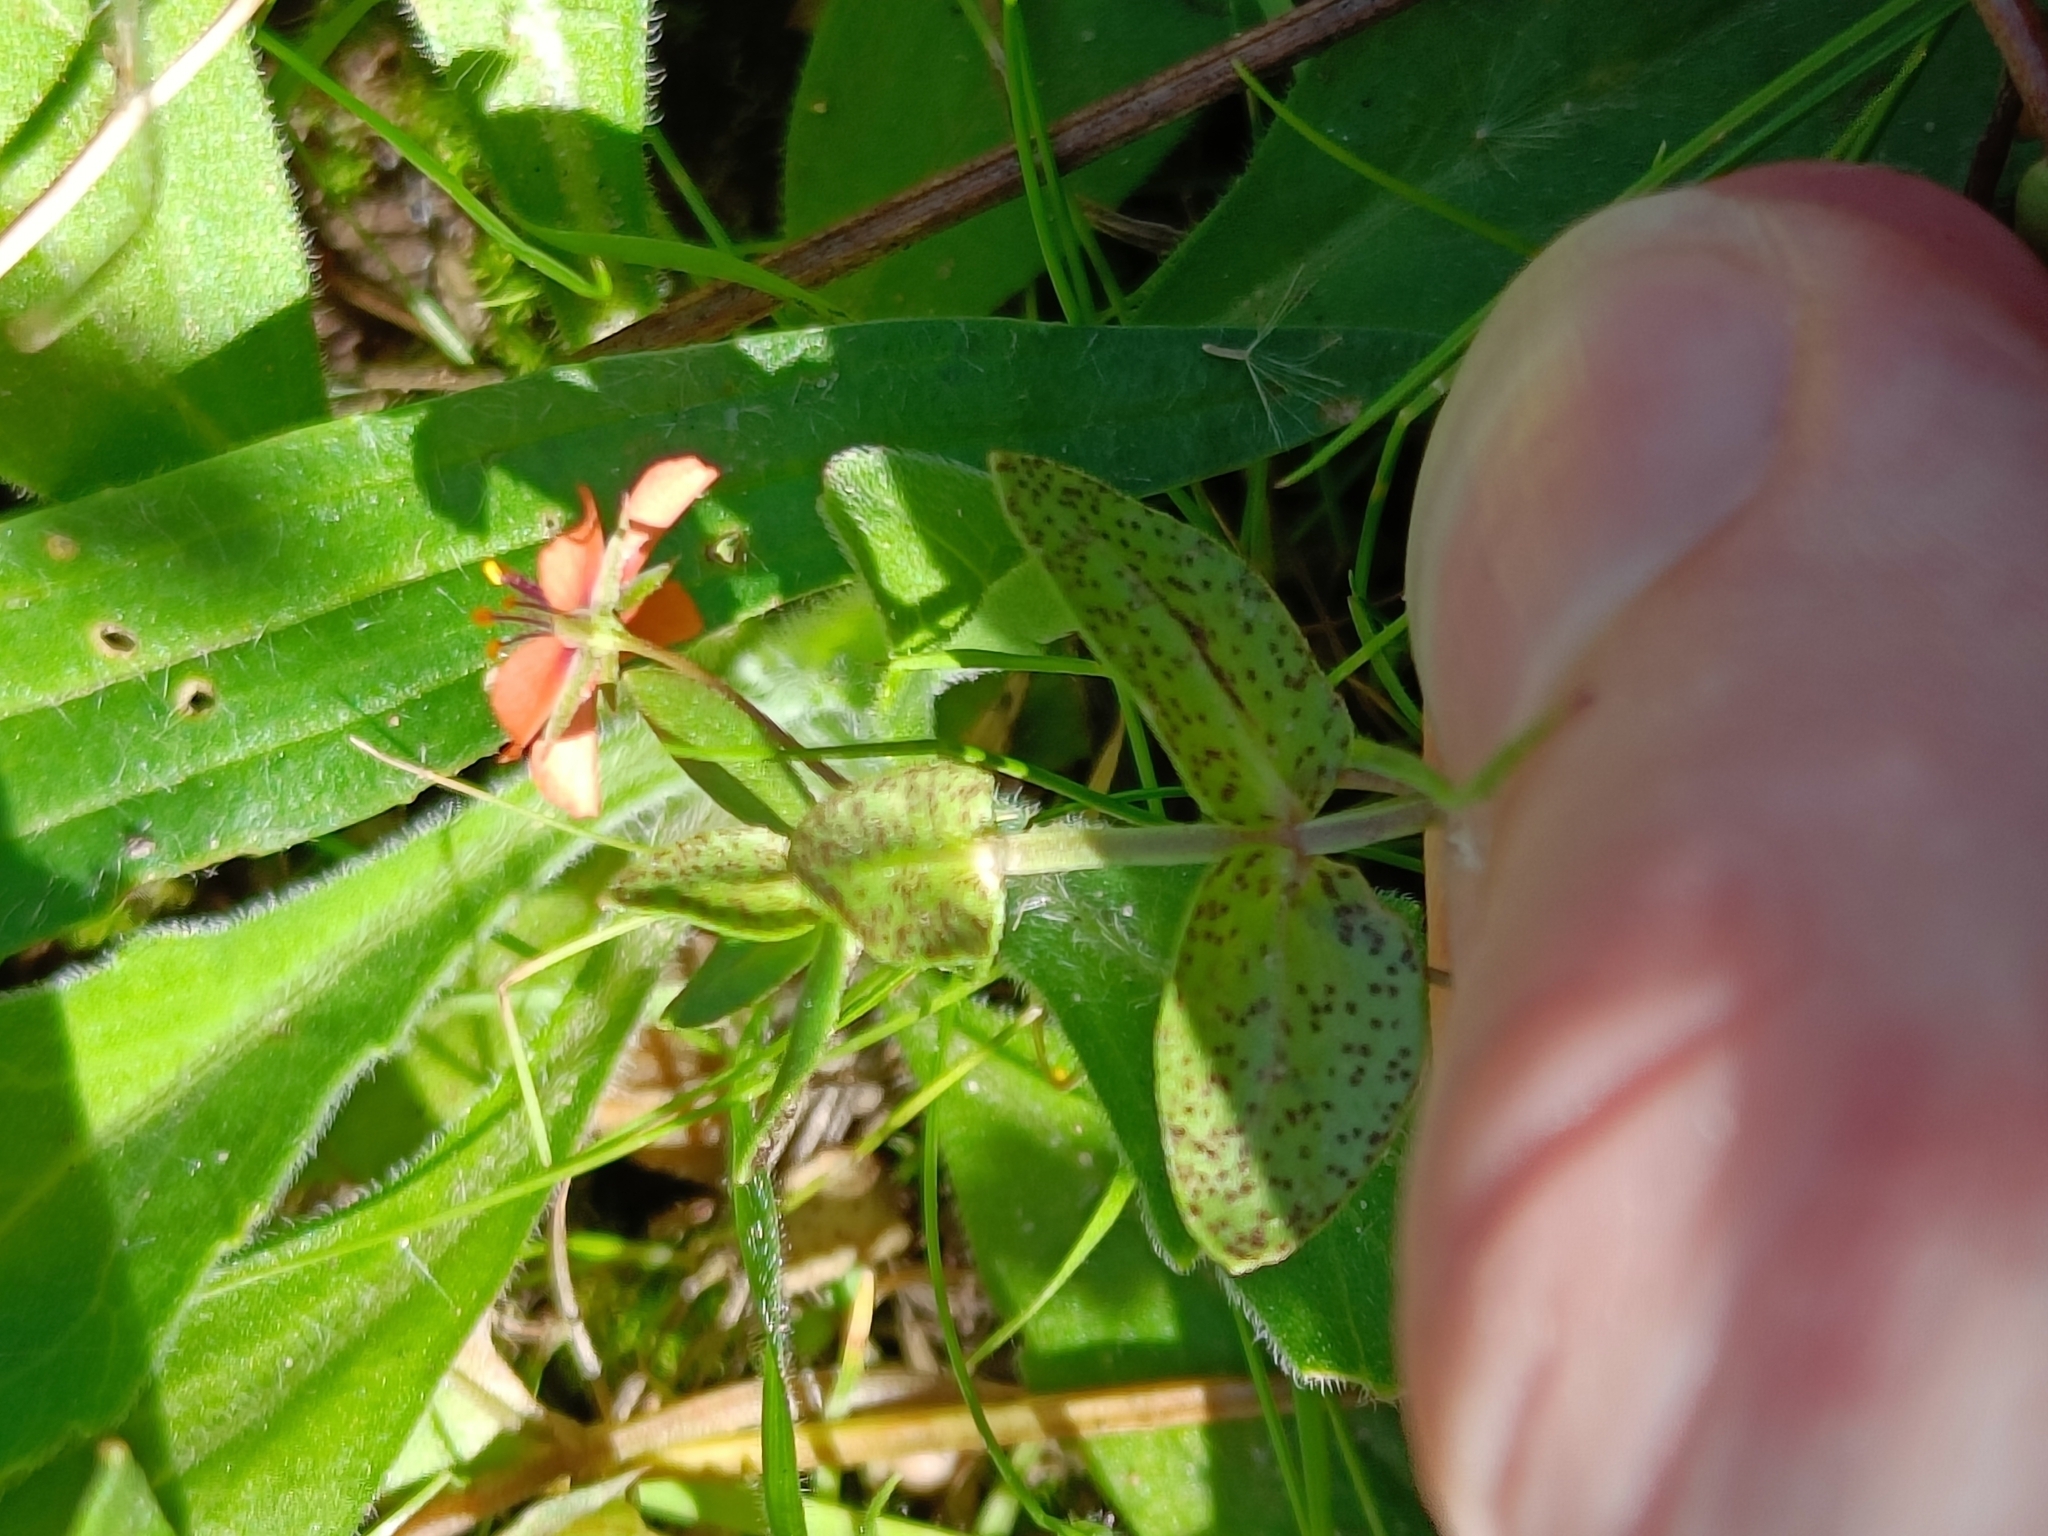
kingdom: Plantae
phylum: Tracheophyta
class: Magnoliopsida
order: Ericales
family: Primulaceae
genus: Lysimachia
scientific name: Lysimachia arvensis
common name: Scarlet pimpernel
